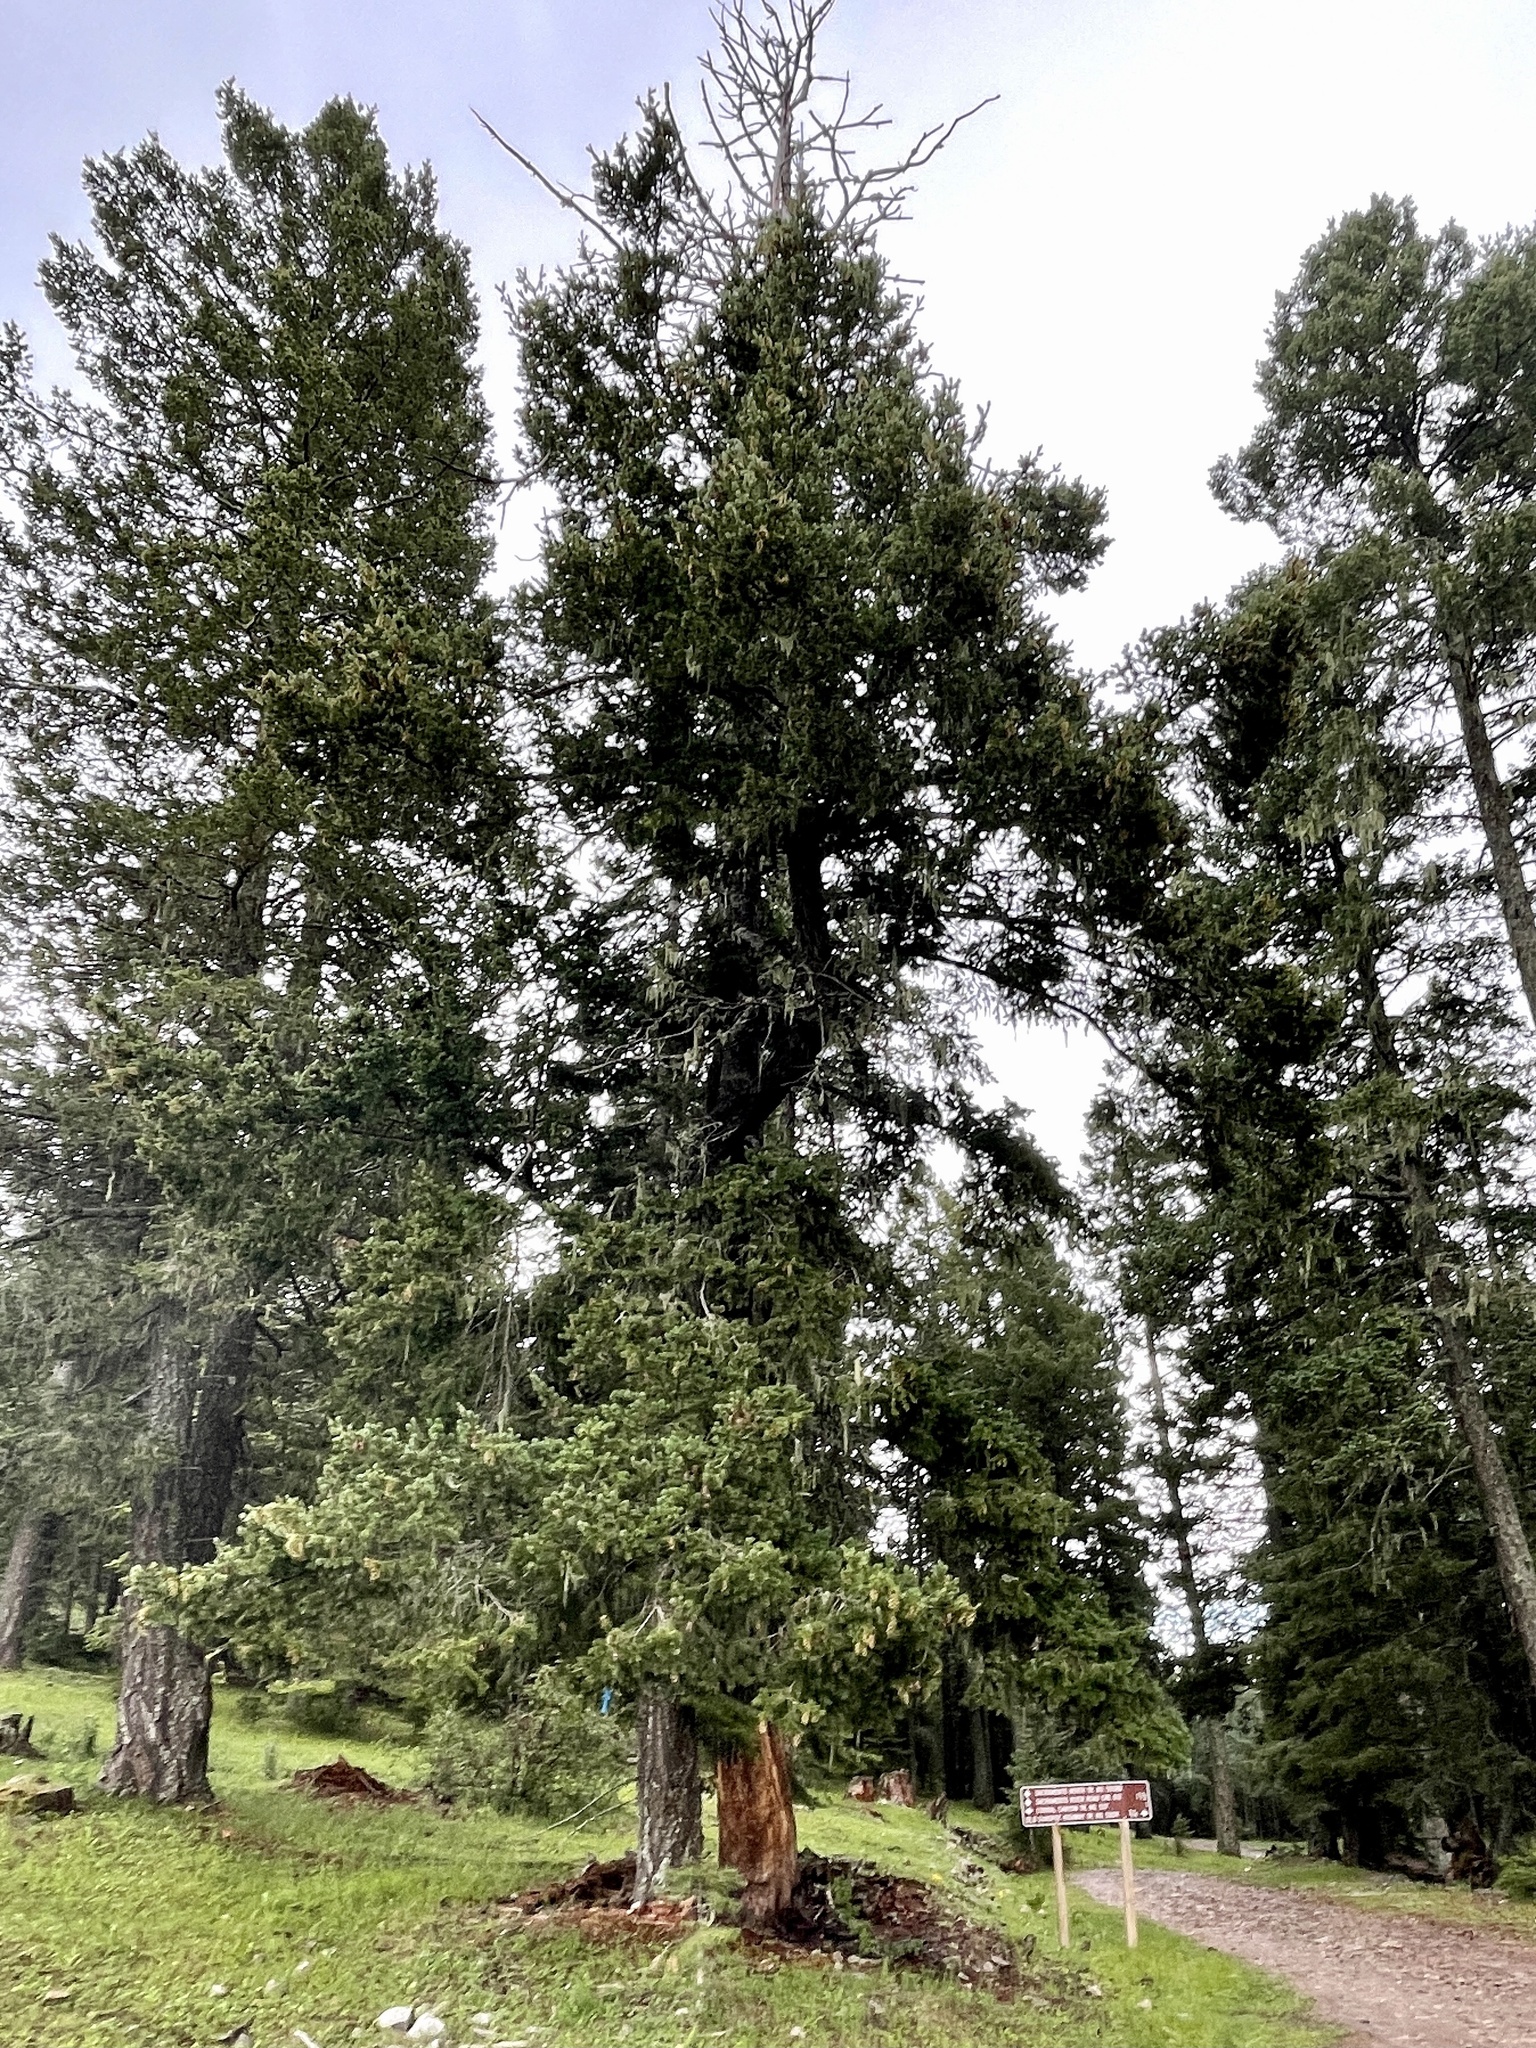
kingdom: Plantae
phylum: Tracheophyta
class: Pinopsida
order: Pinales
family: Pinaceae
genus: Pseudotsuga
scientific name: Pseudotsuga menziesii
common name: Douglas fir
